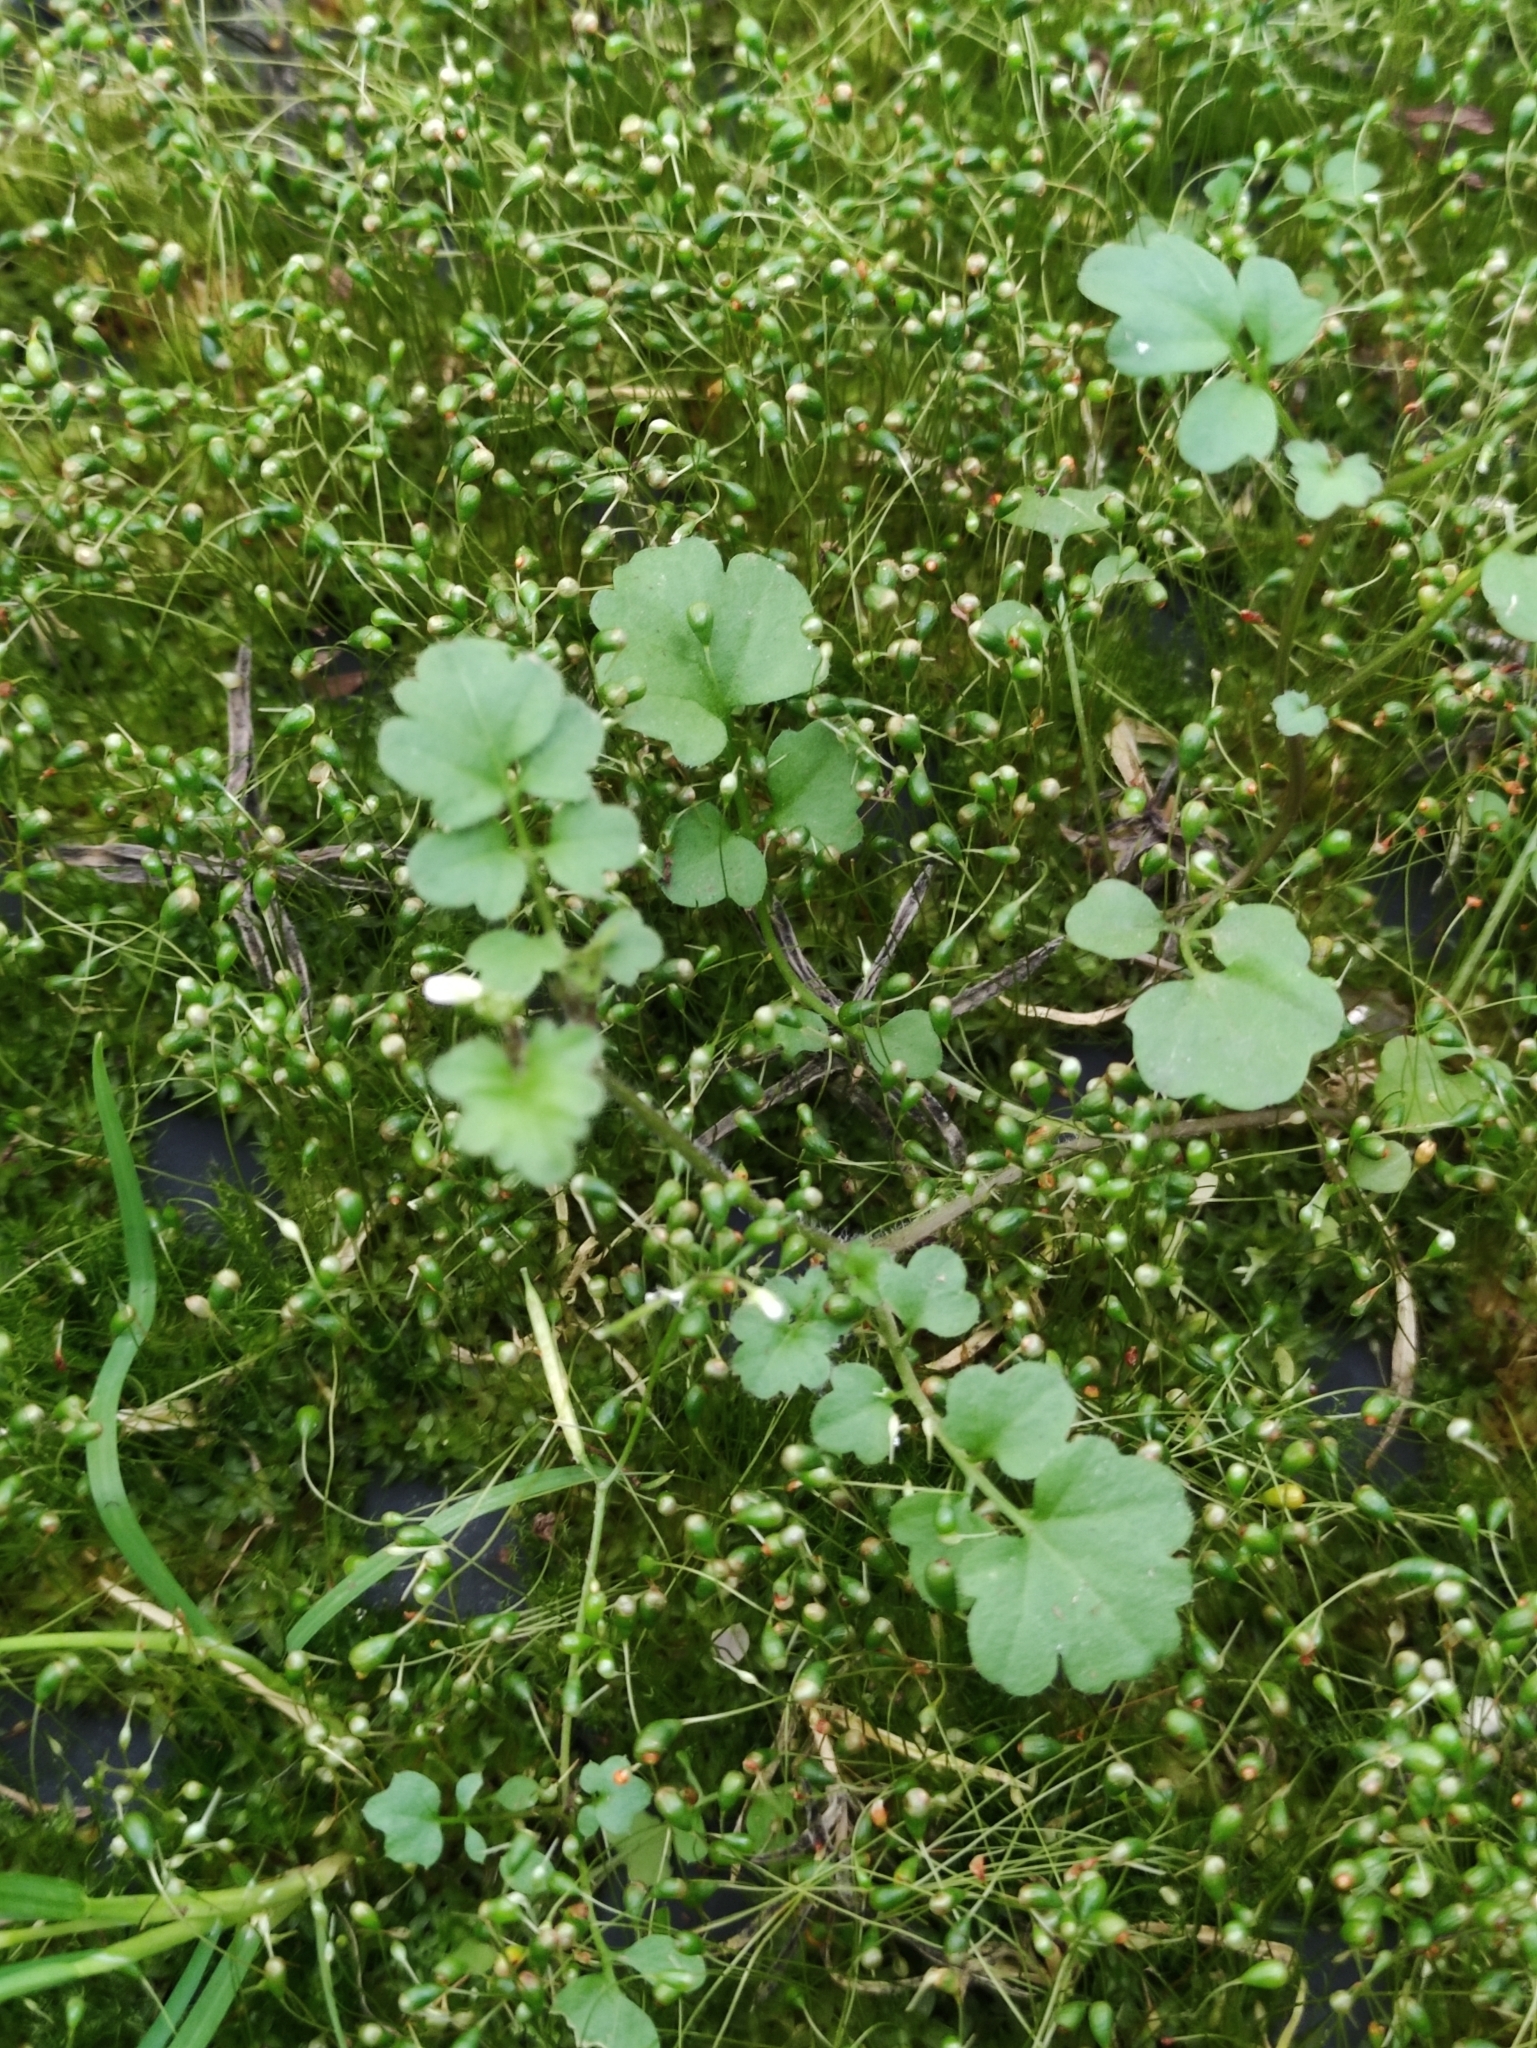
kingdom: Plantae
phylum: Tracheophyta
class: Magnoliopsida
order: Brassicales
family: Brassicaceae
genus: Cardamine
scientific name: Cardamine impatiens
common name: Narrow-leaved bitter-cress
